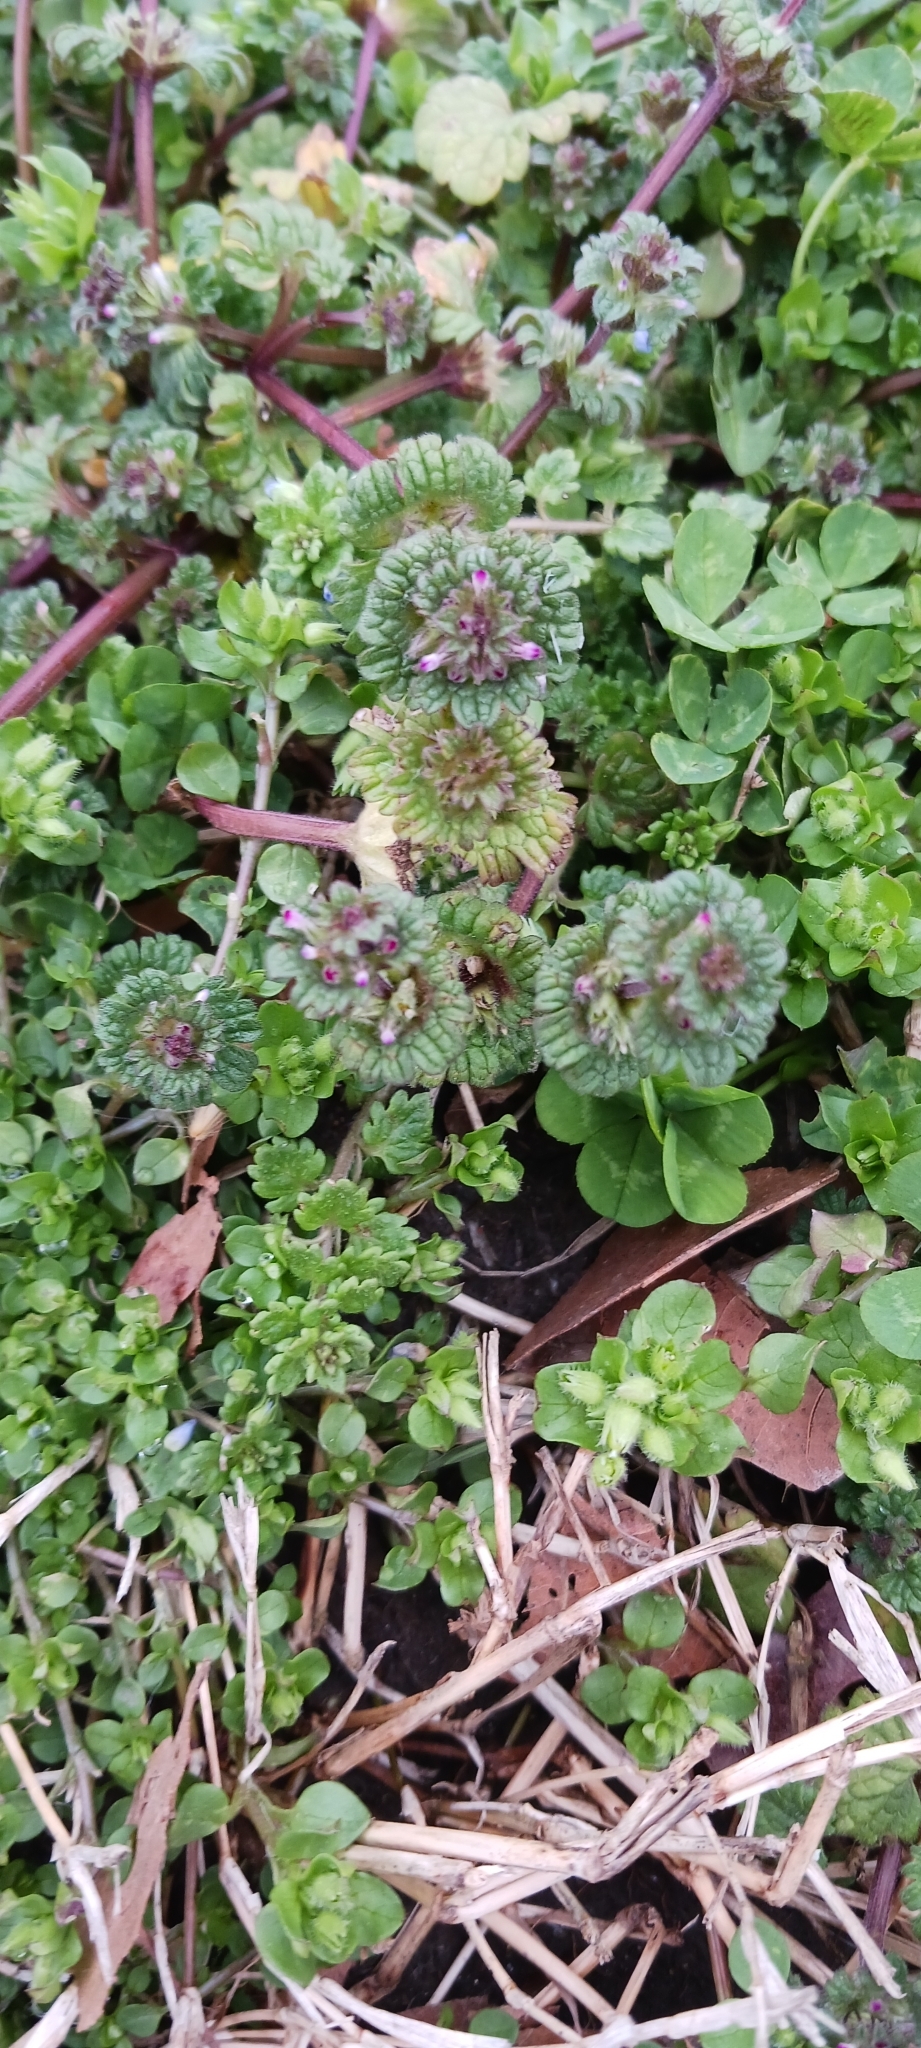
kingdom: Plantae
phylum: Tracheophyta
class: Magnoliopsida
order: Lamiales
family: Lamiaceae
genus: Lamium
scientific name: Lamium amplexicaule
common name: Henbit dead-nettle
